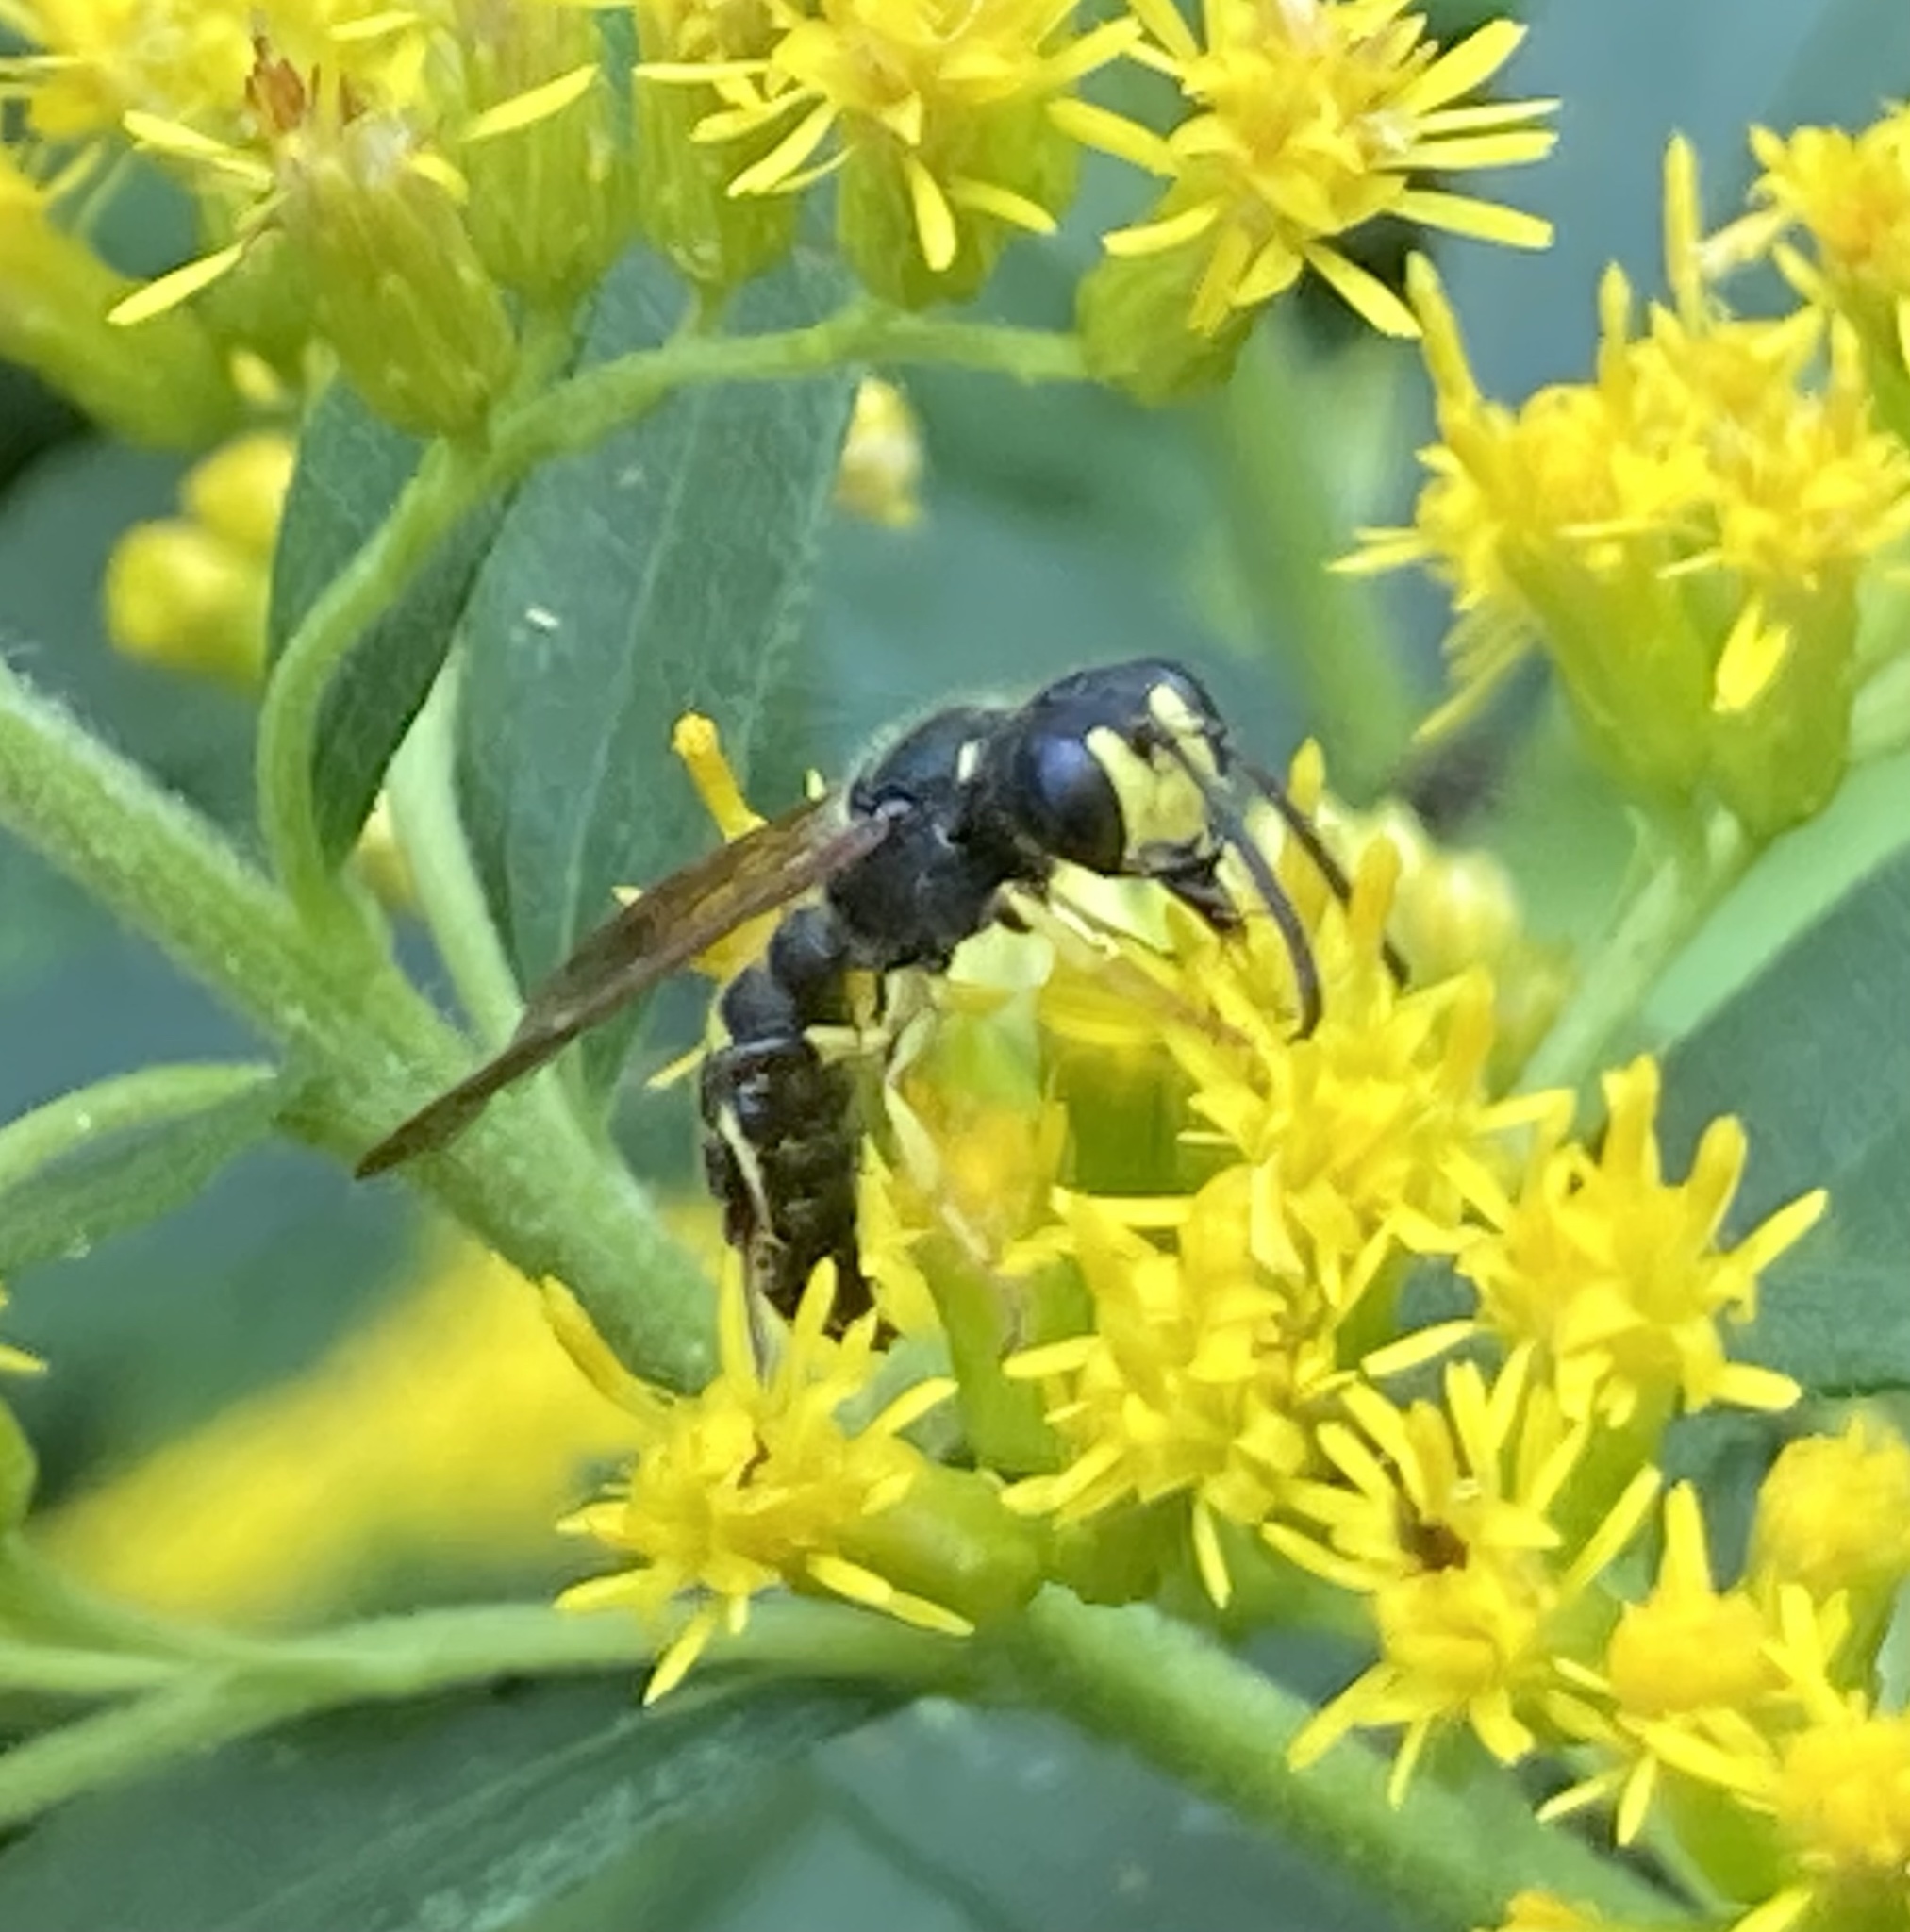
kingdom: Animalia
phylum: Arthropoda
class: Insecta
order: Hymenoptera
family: Crabronidae
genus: Cerceris
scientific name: Cerceris
